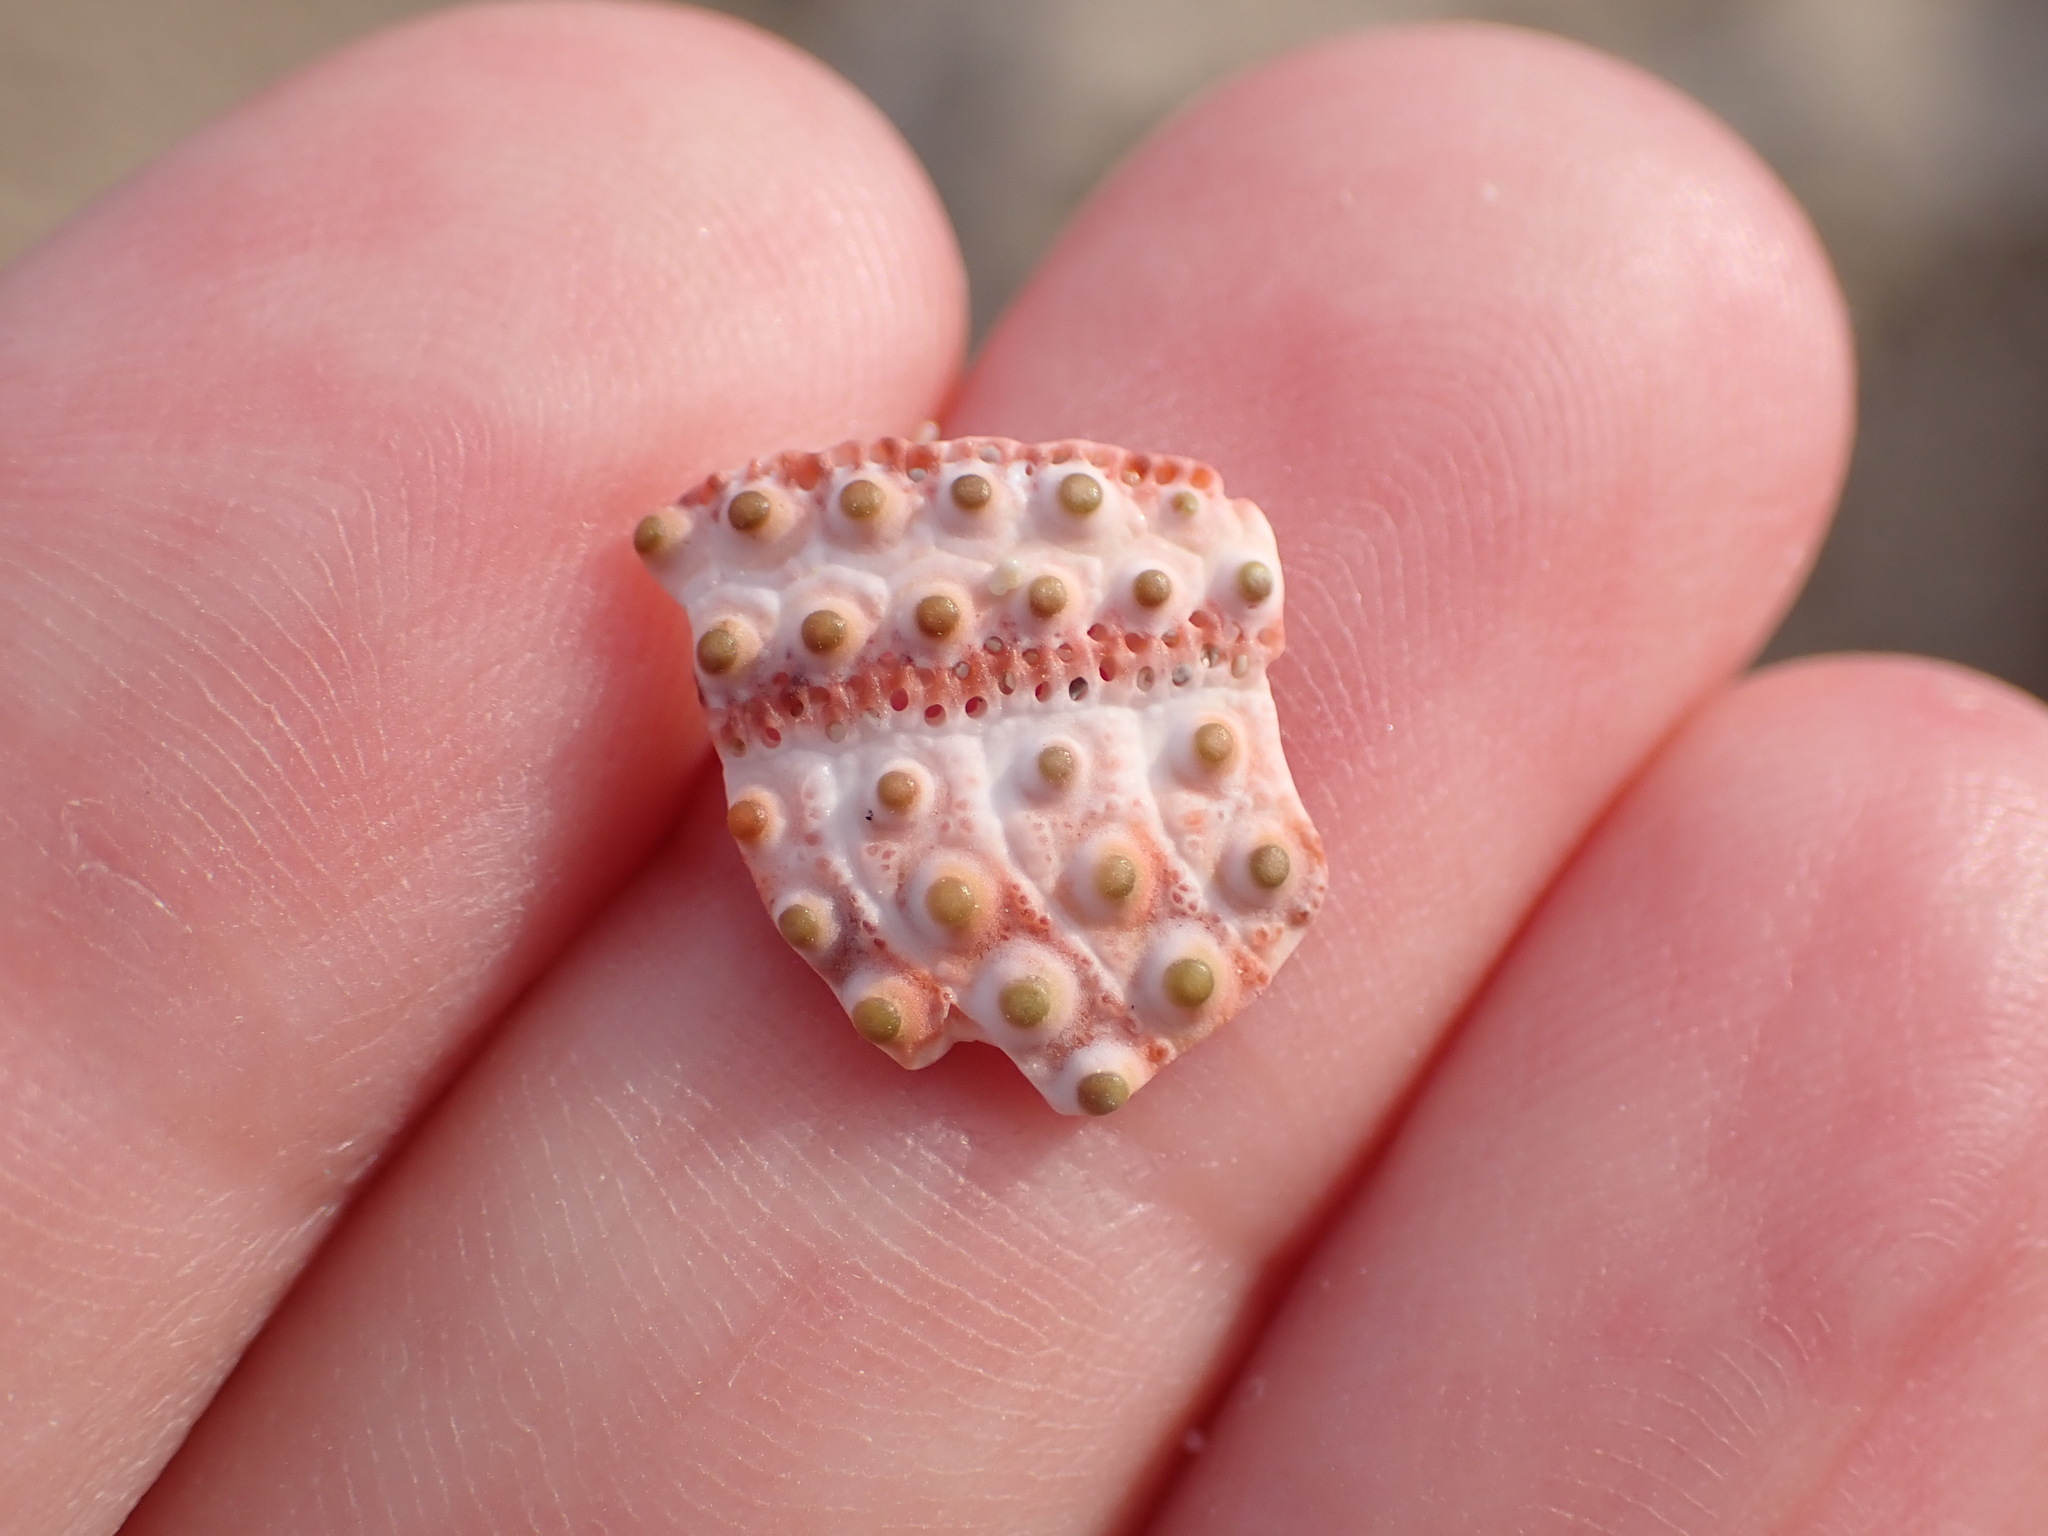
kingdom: Animalia
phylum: Echinodermata
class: Echinoidea
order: Arbacioida
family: Arbaciidae
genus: Arbacia
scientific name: Arbacia lixula
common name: Black sea urchin
